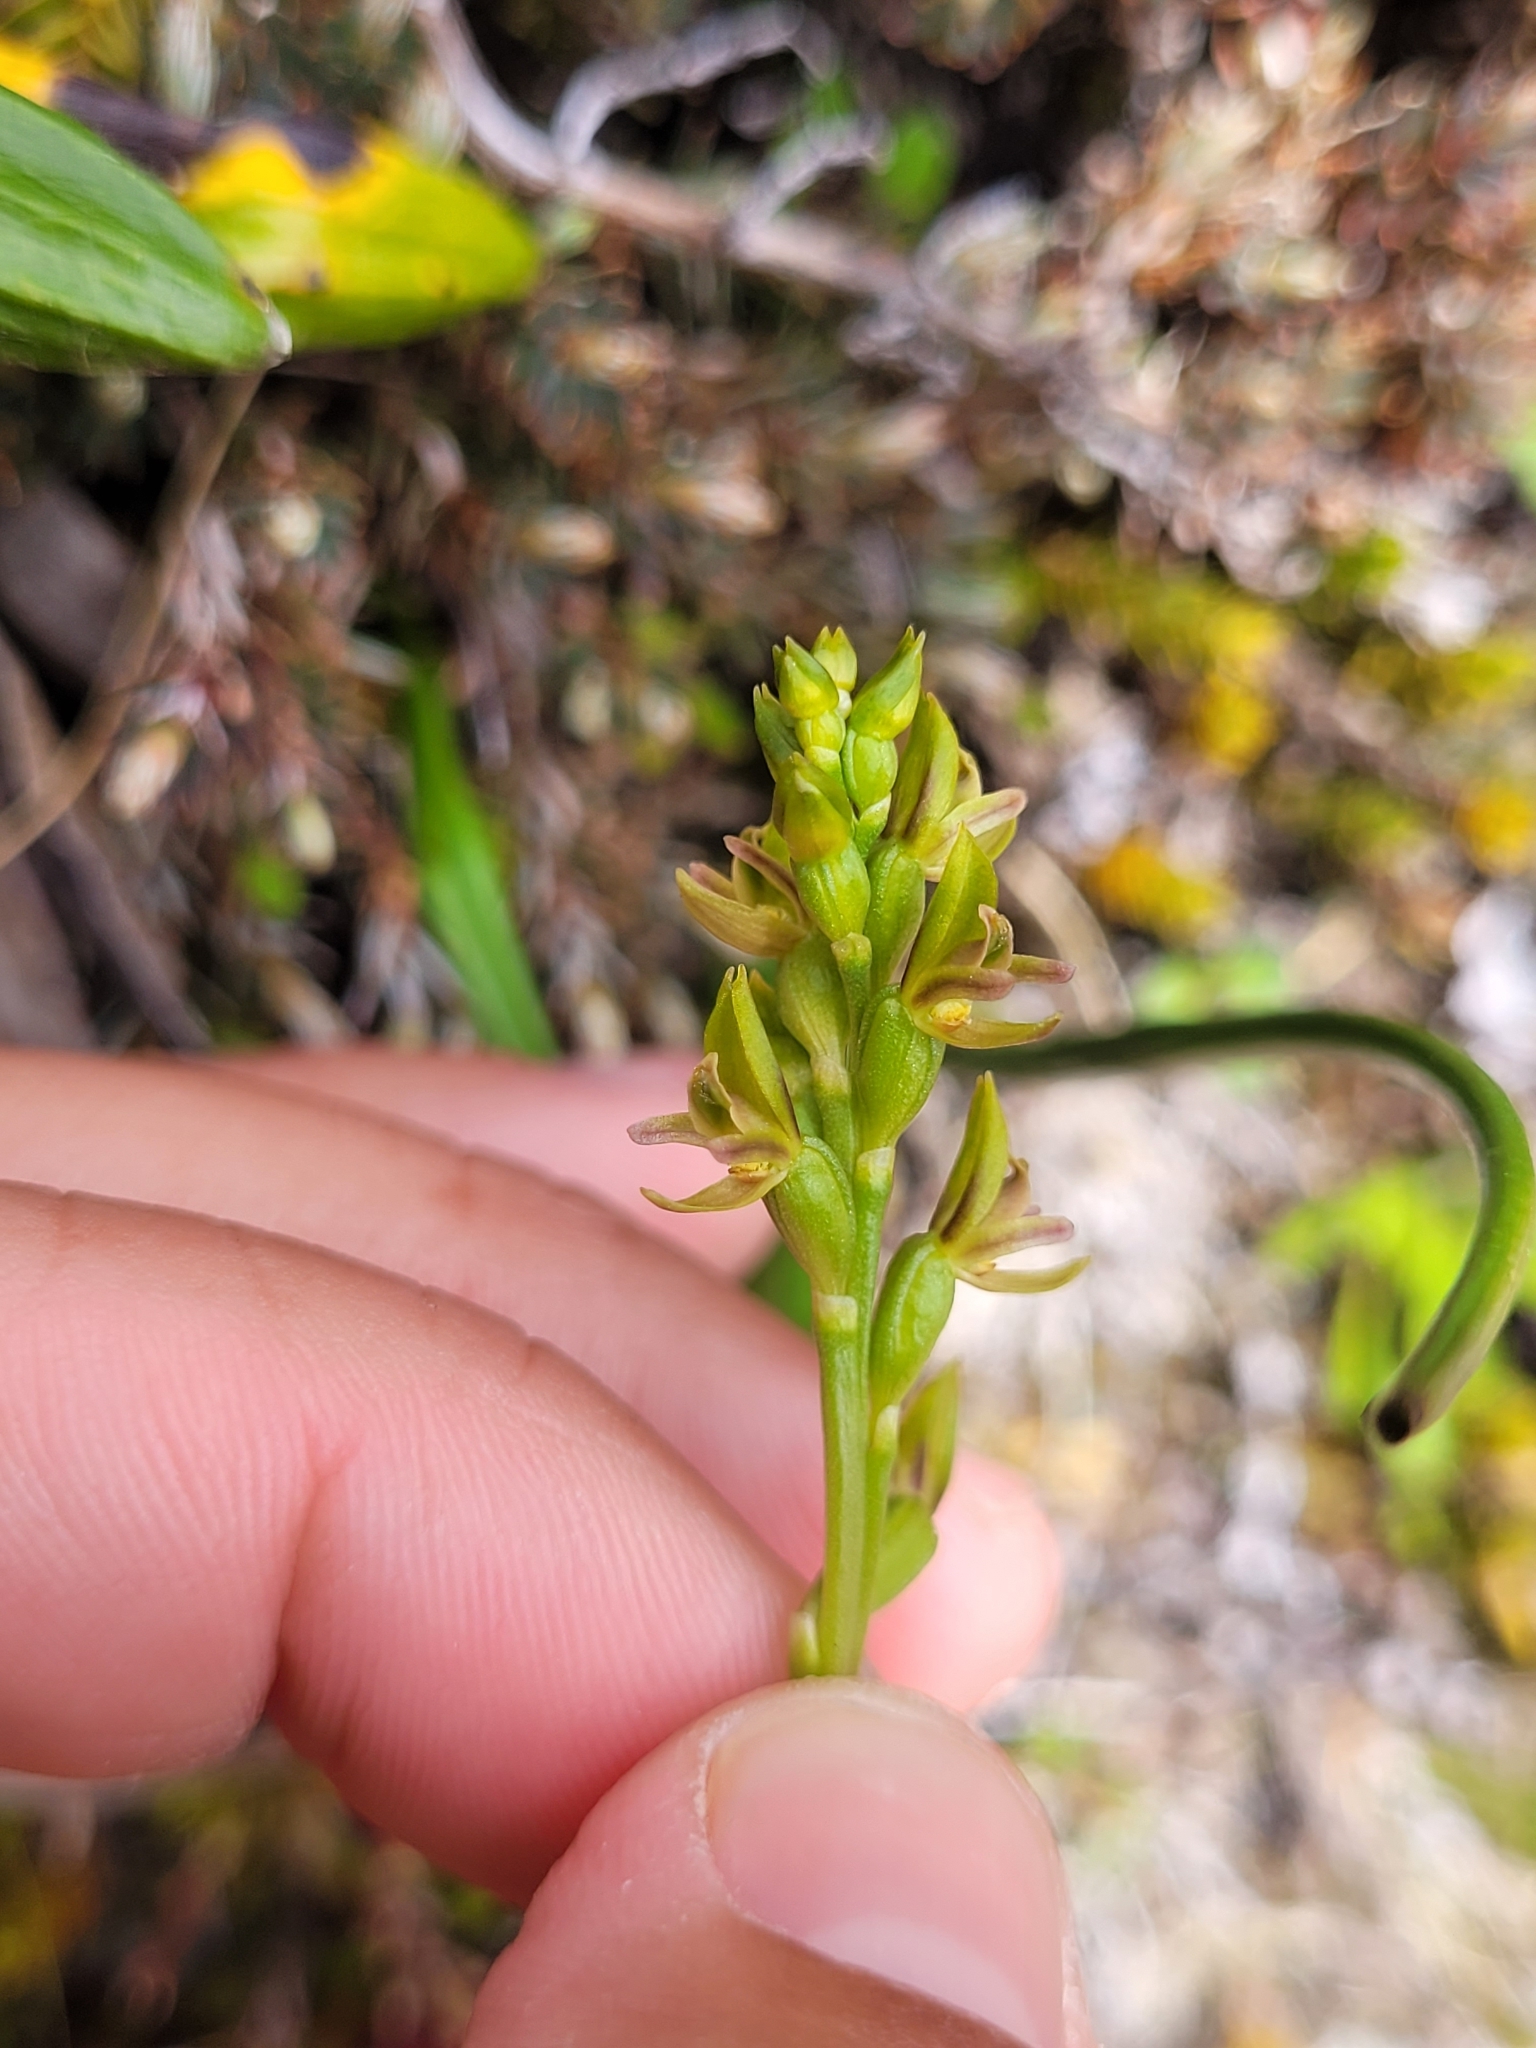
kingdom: Plantae
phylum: Tracheophyta
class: Liliopsida
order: Asparagales
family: Orchidaceae
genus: Prasophyllum
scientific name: Prasophyllum colensoi
